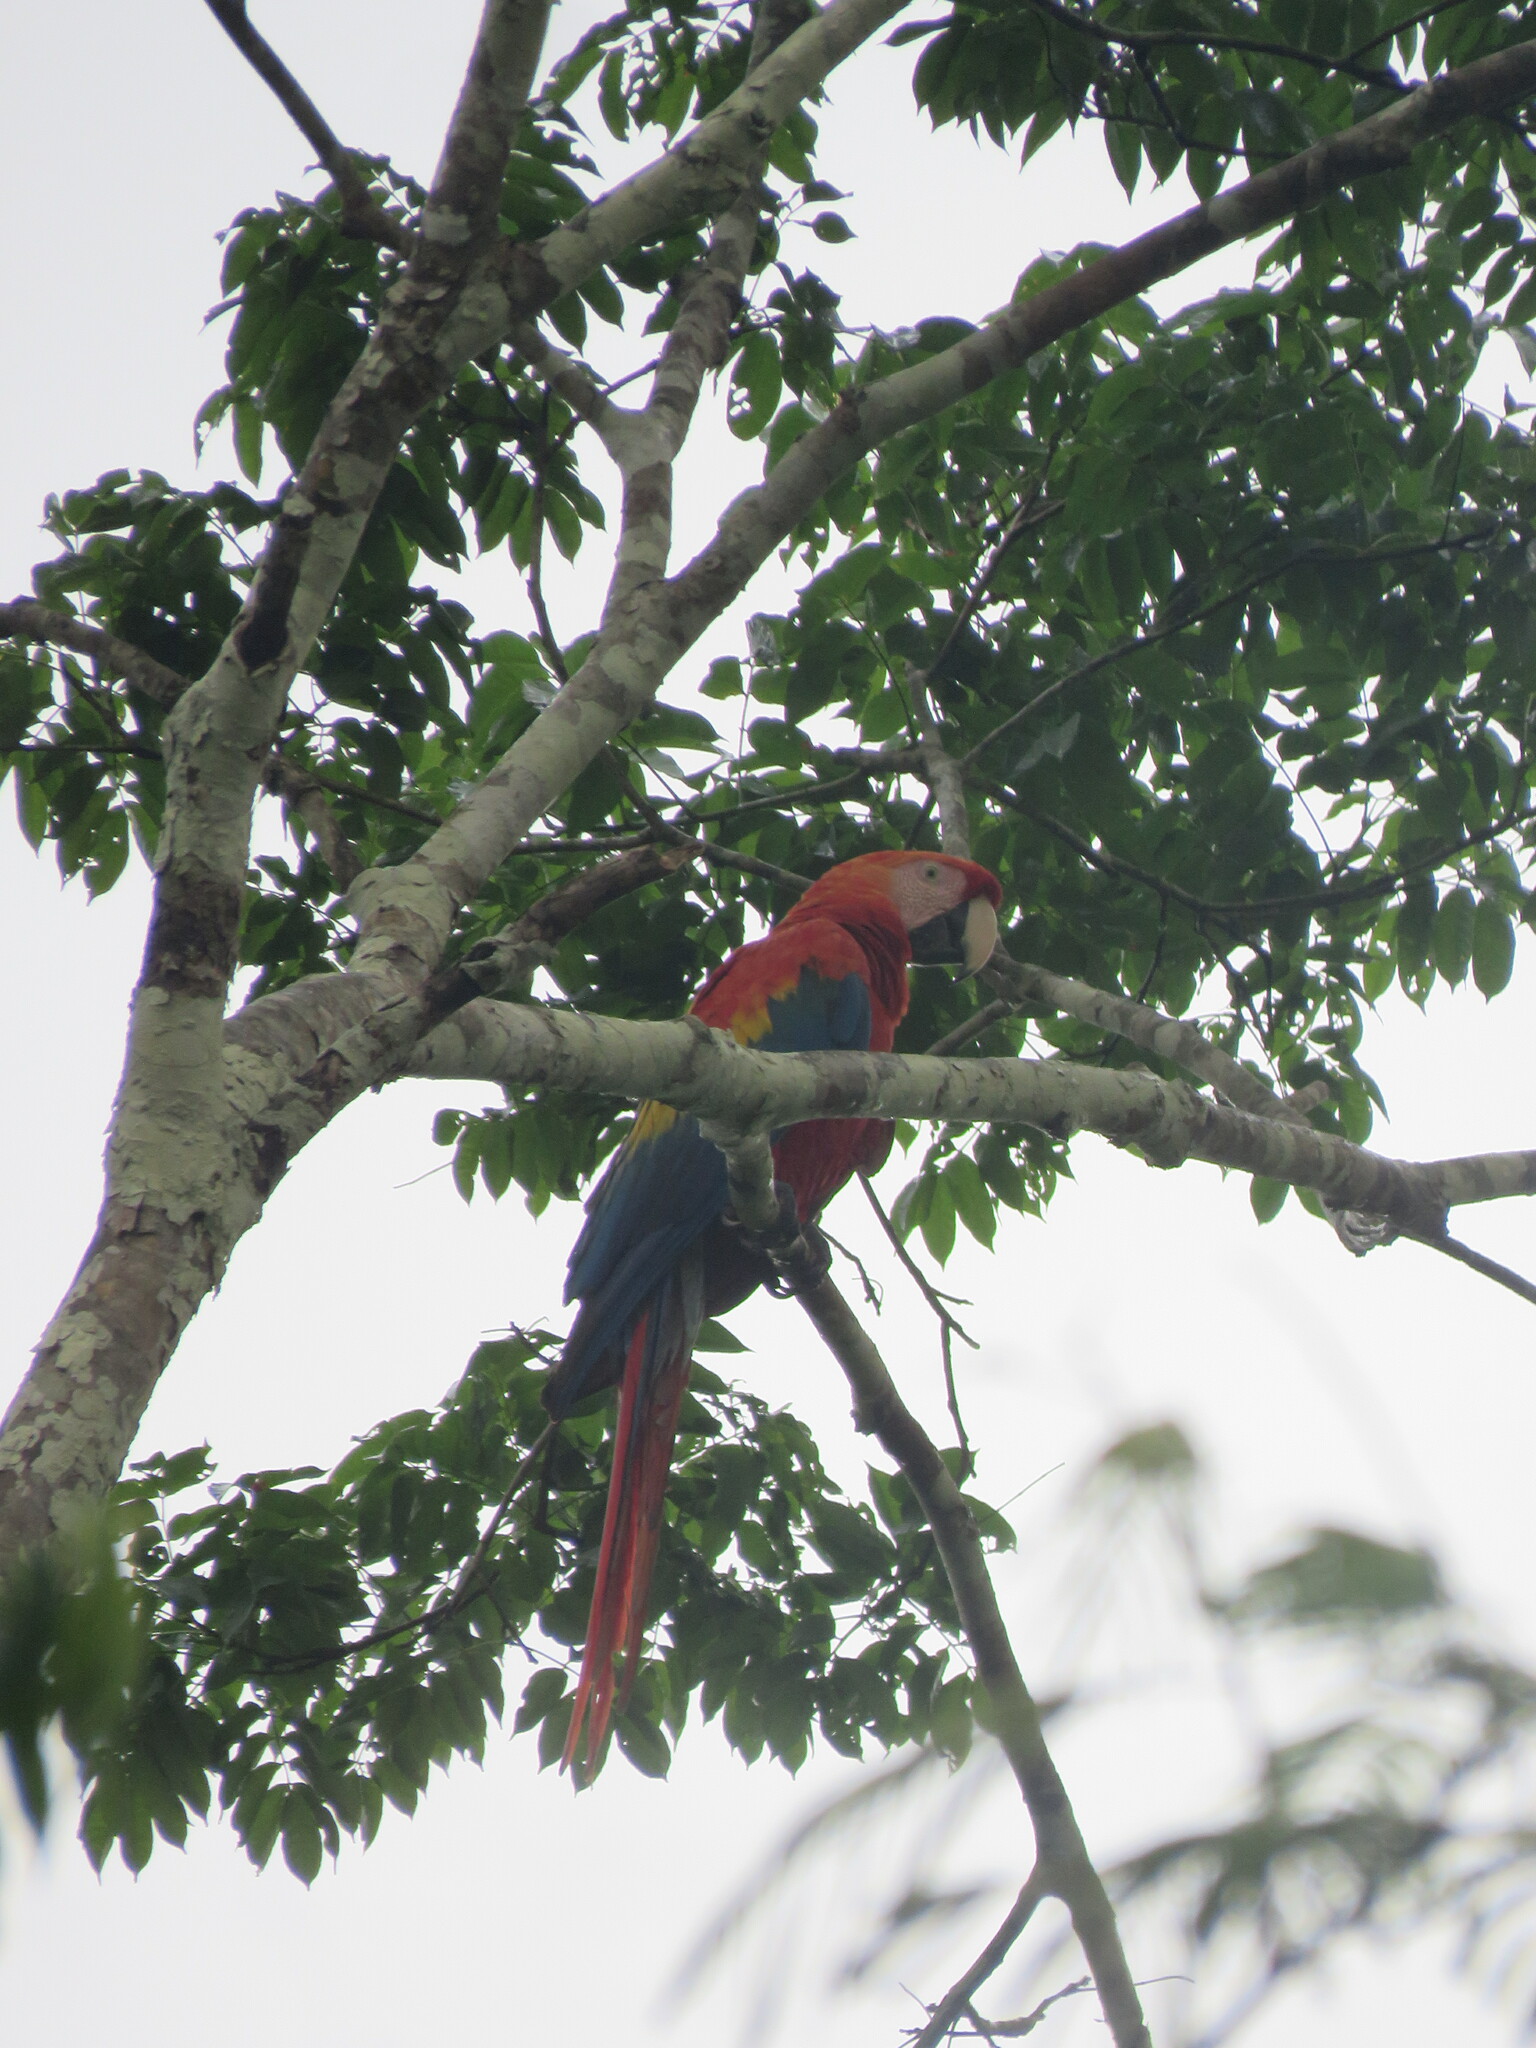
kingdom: Animalia
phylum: Chordata
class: Aves
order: Psittaciformes
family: Psittacidae
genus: Ara
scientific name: Ara macao
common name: Scarlet macaw
